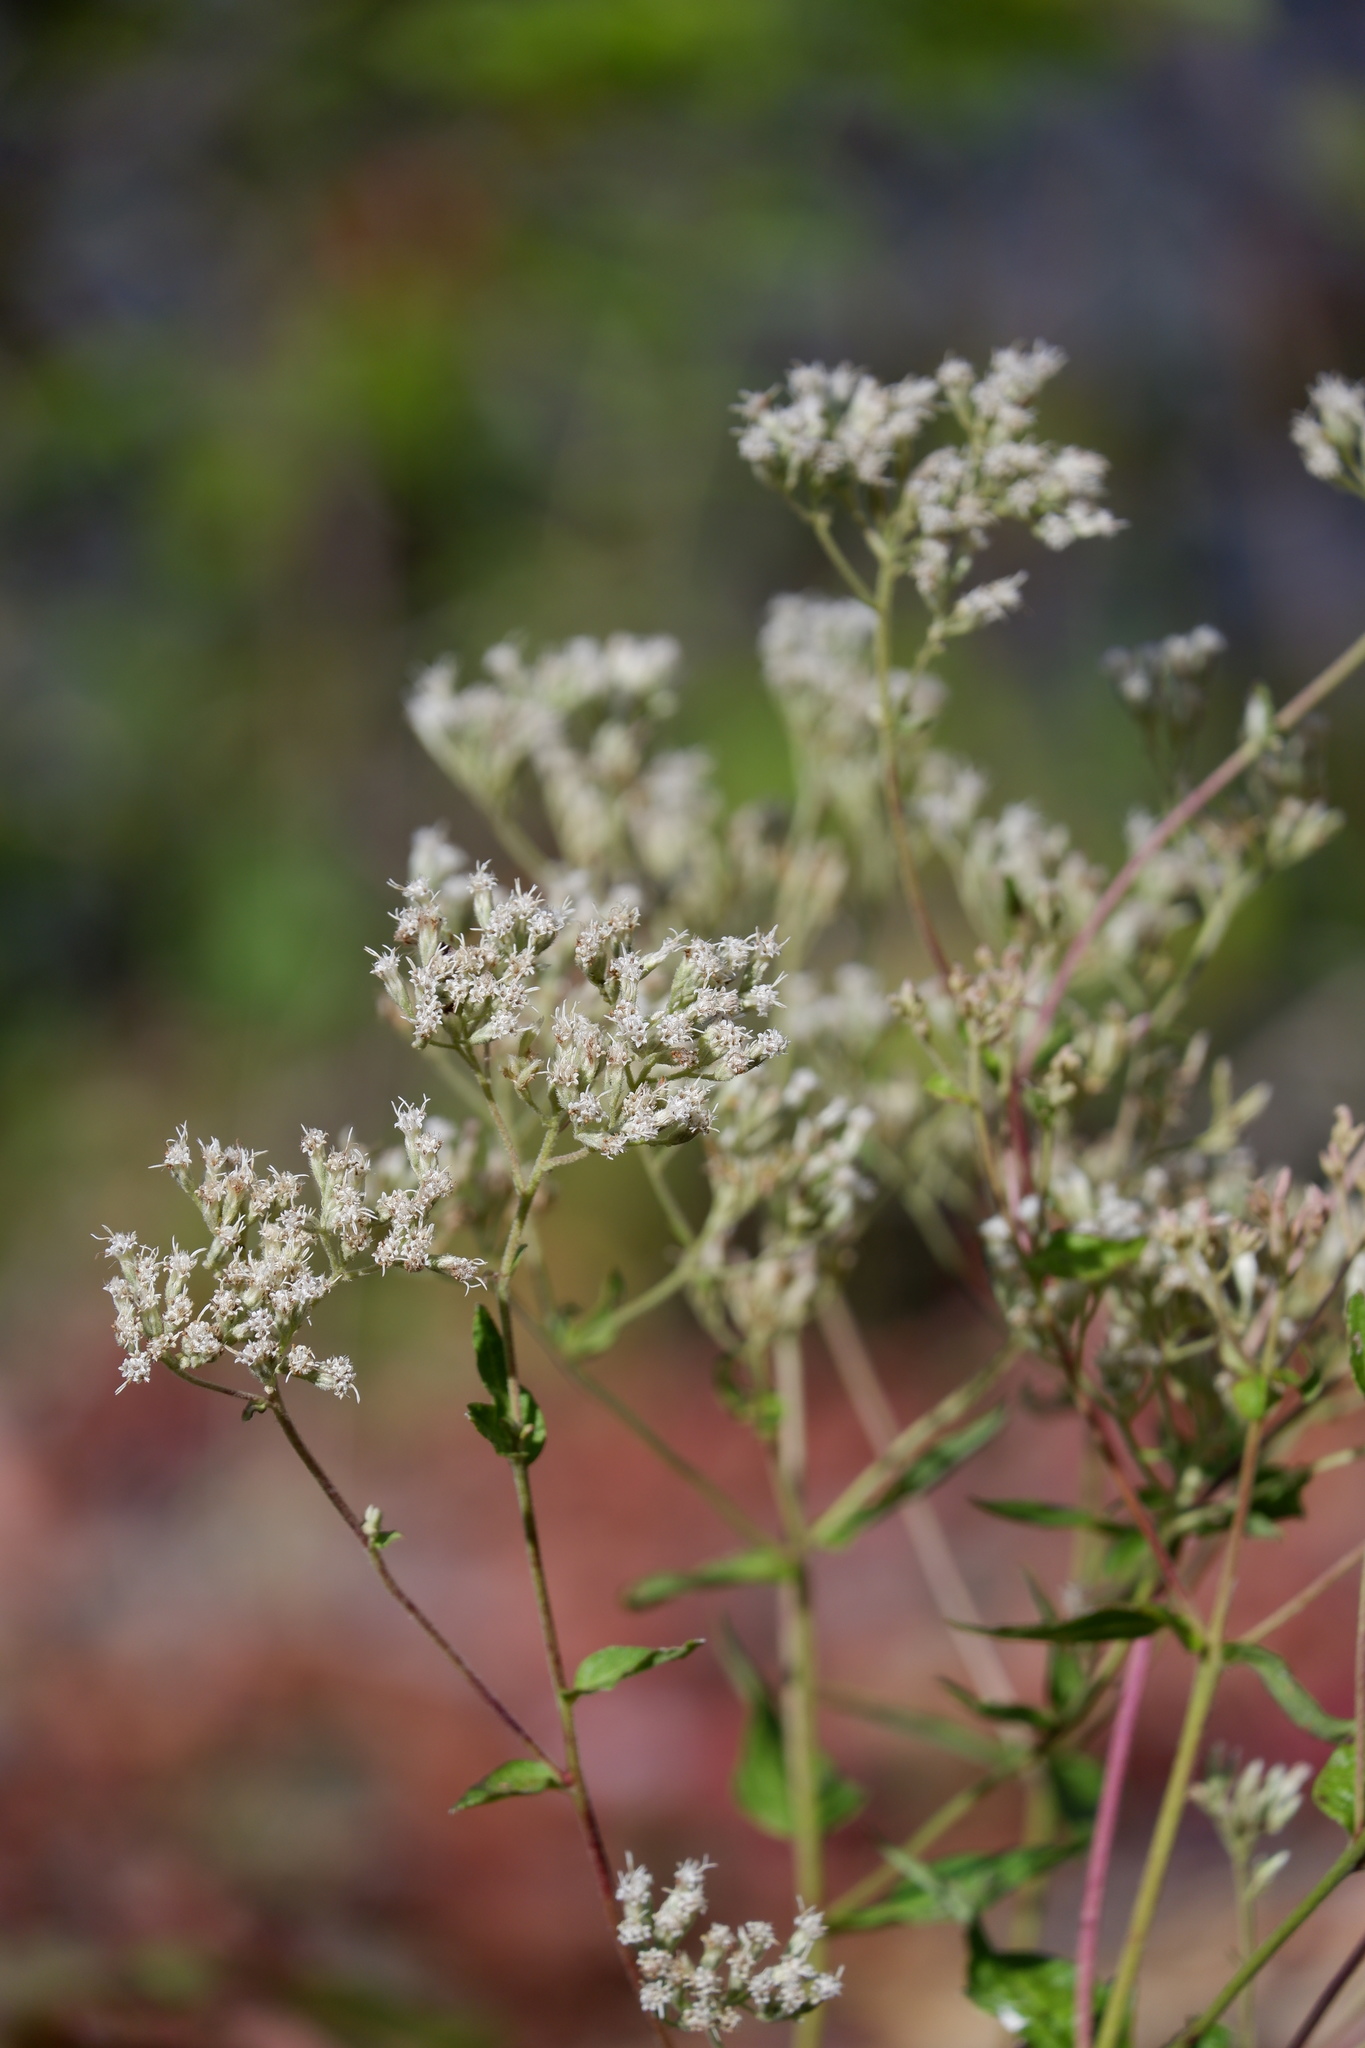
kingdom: Plantae
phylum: Tracheophyta
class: Magnoliopsida
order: Asterales
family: Asteraceae
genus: Eupatorium
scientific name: Eupatorium pilosum
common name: Rough boneset
